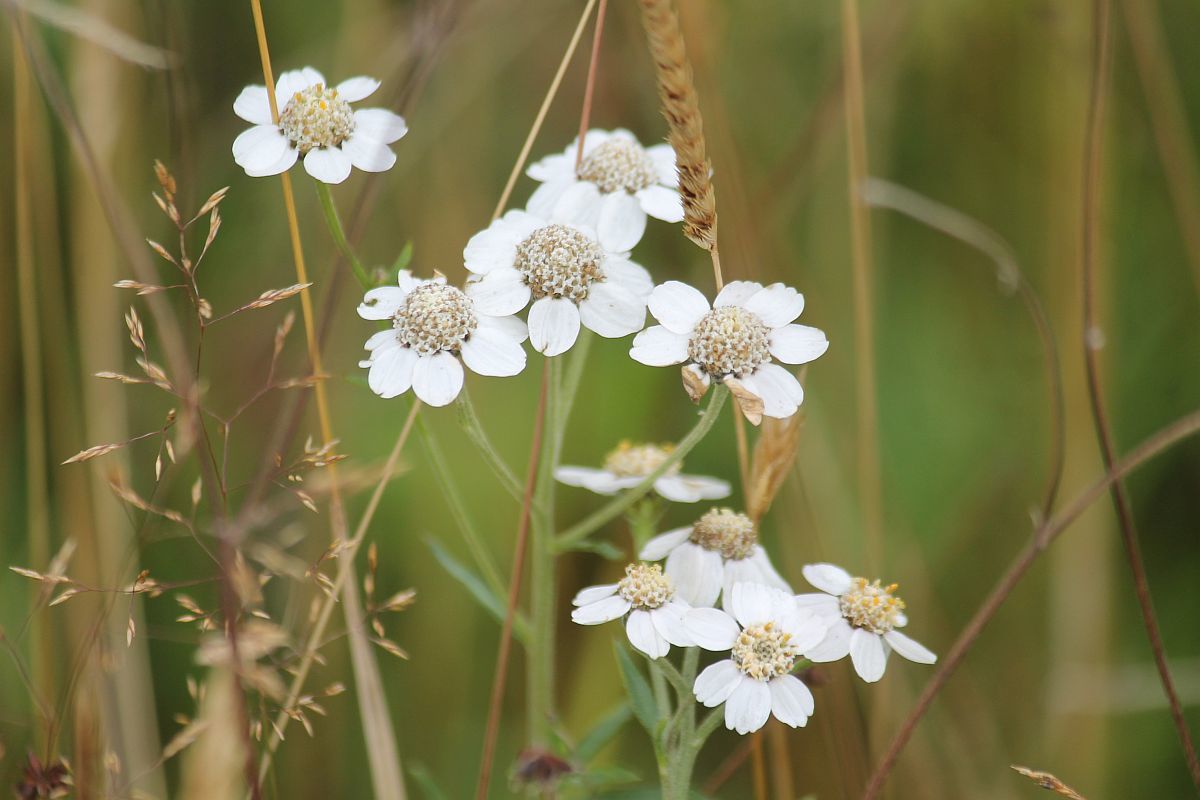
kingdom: Plantae
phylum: Tracheophyta
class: Magnoliopsida
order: Asterales
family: Asteraceae
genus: Achillea
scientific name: Achillea ptarmica
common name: Sneezeweed
